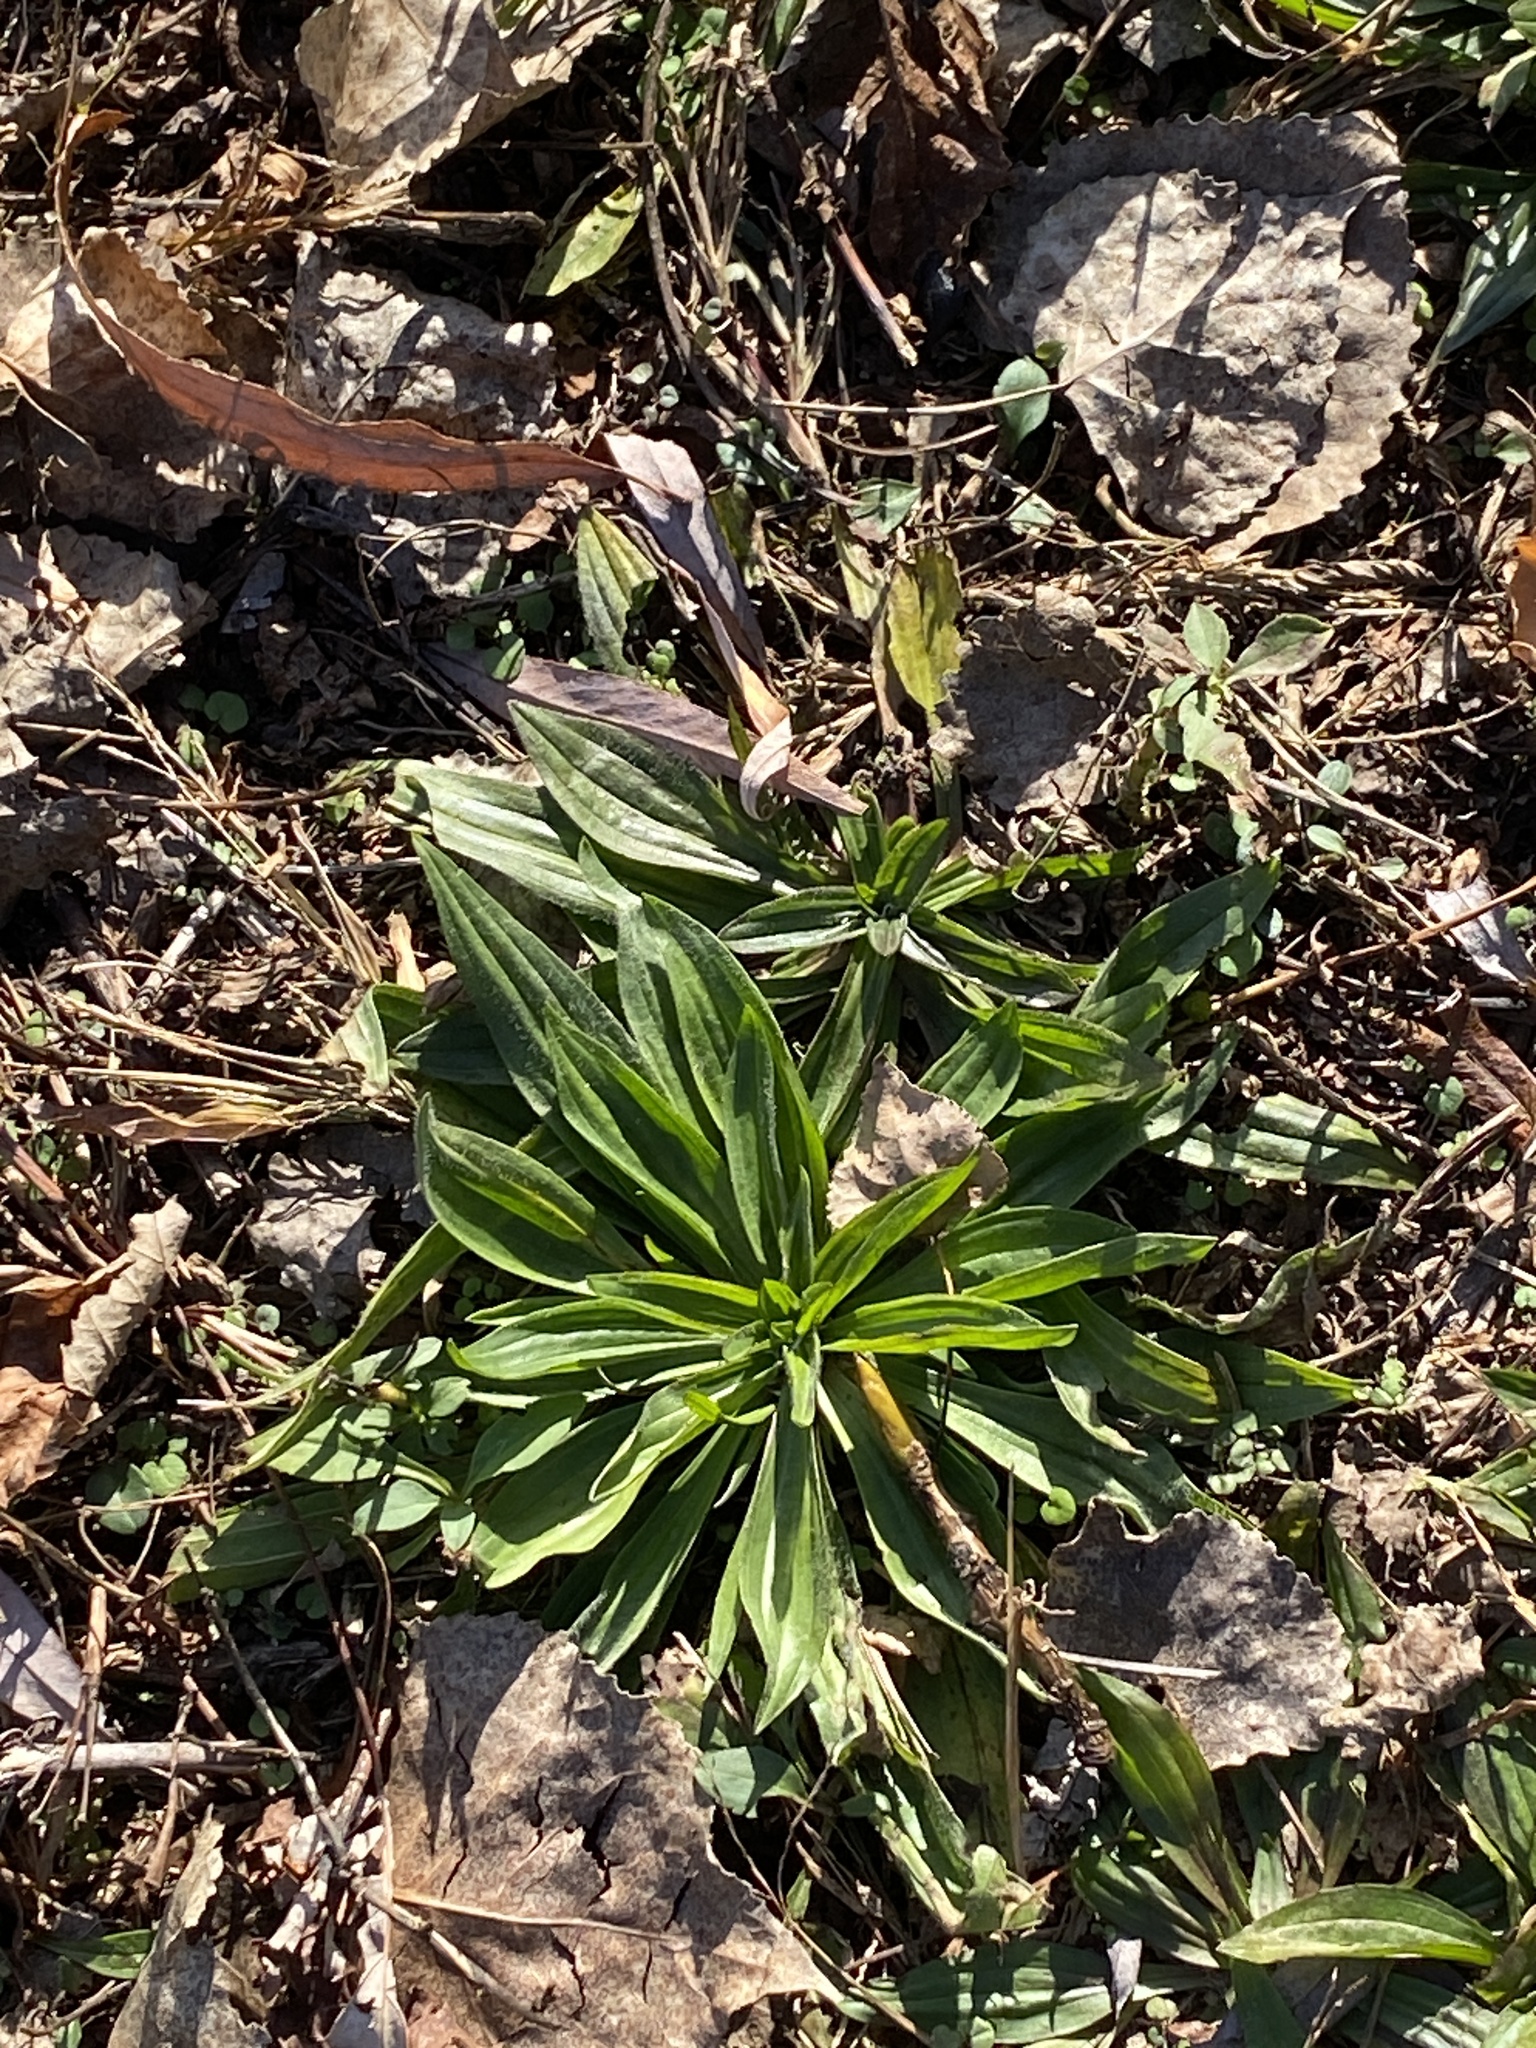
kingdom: Plantae
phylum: Tracheophyta
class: Magnoliopsida
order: Lamiales
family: Plantaginaceae
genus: Plantago
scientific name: Plantago lanceolata
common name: Ribwort plantain
